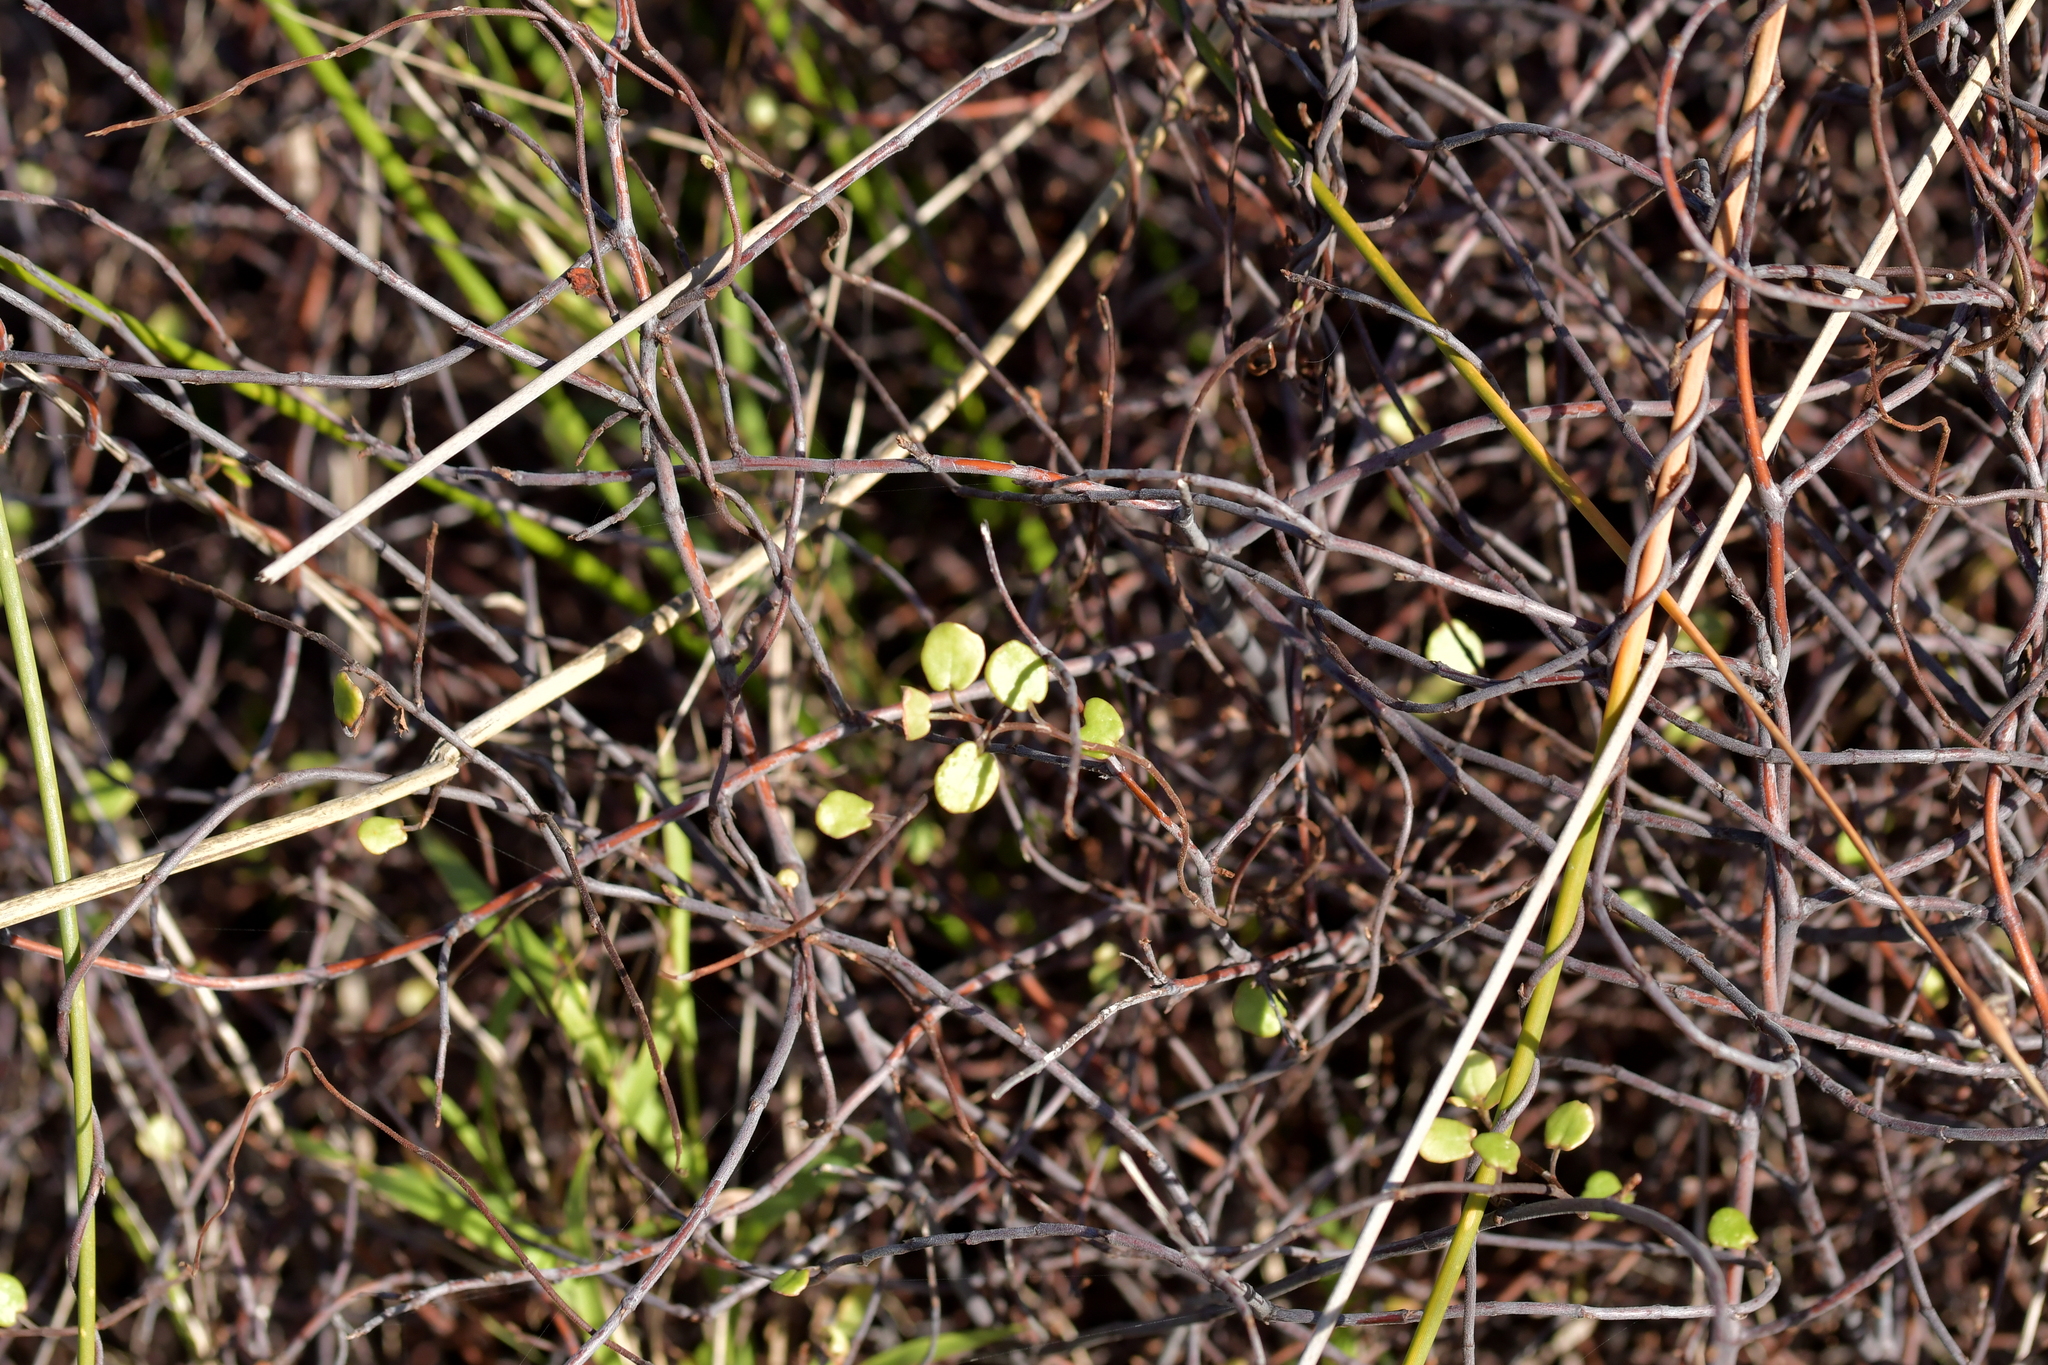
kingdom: Plantae
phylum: Tracheophyta
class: Magnoliopsida
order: Caryophyllales
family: Polygonaceae
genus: Muehlenbeckia
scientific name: Muehlenbeckia complexa
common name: Wireplant
